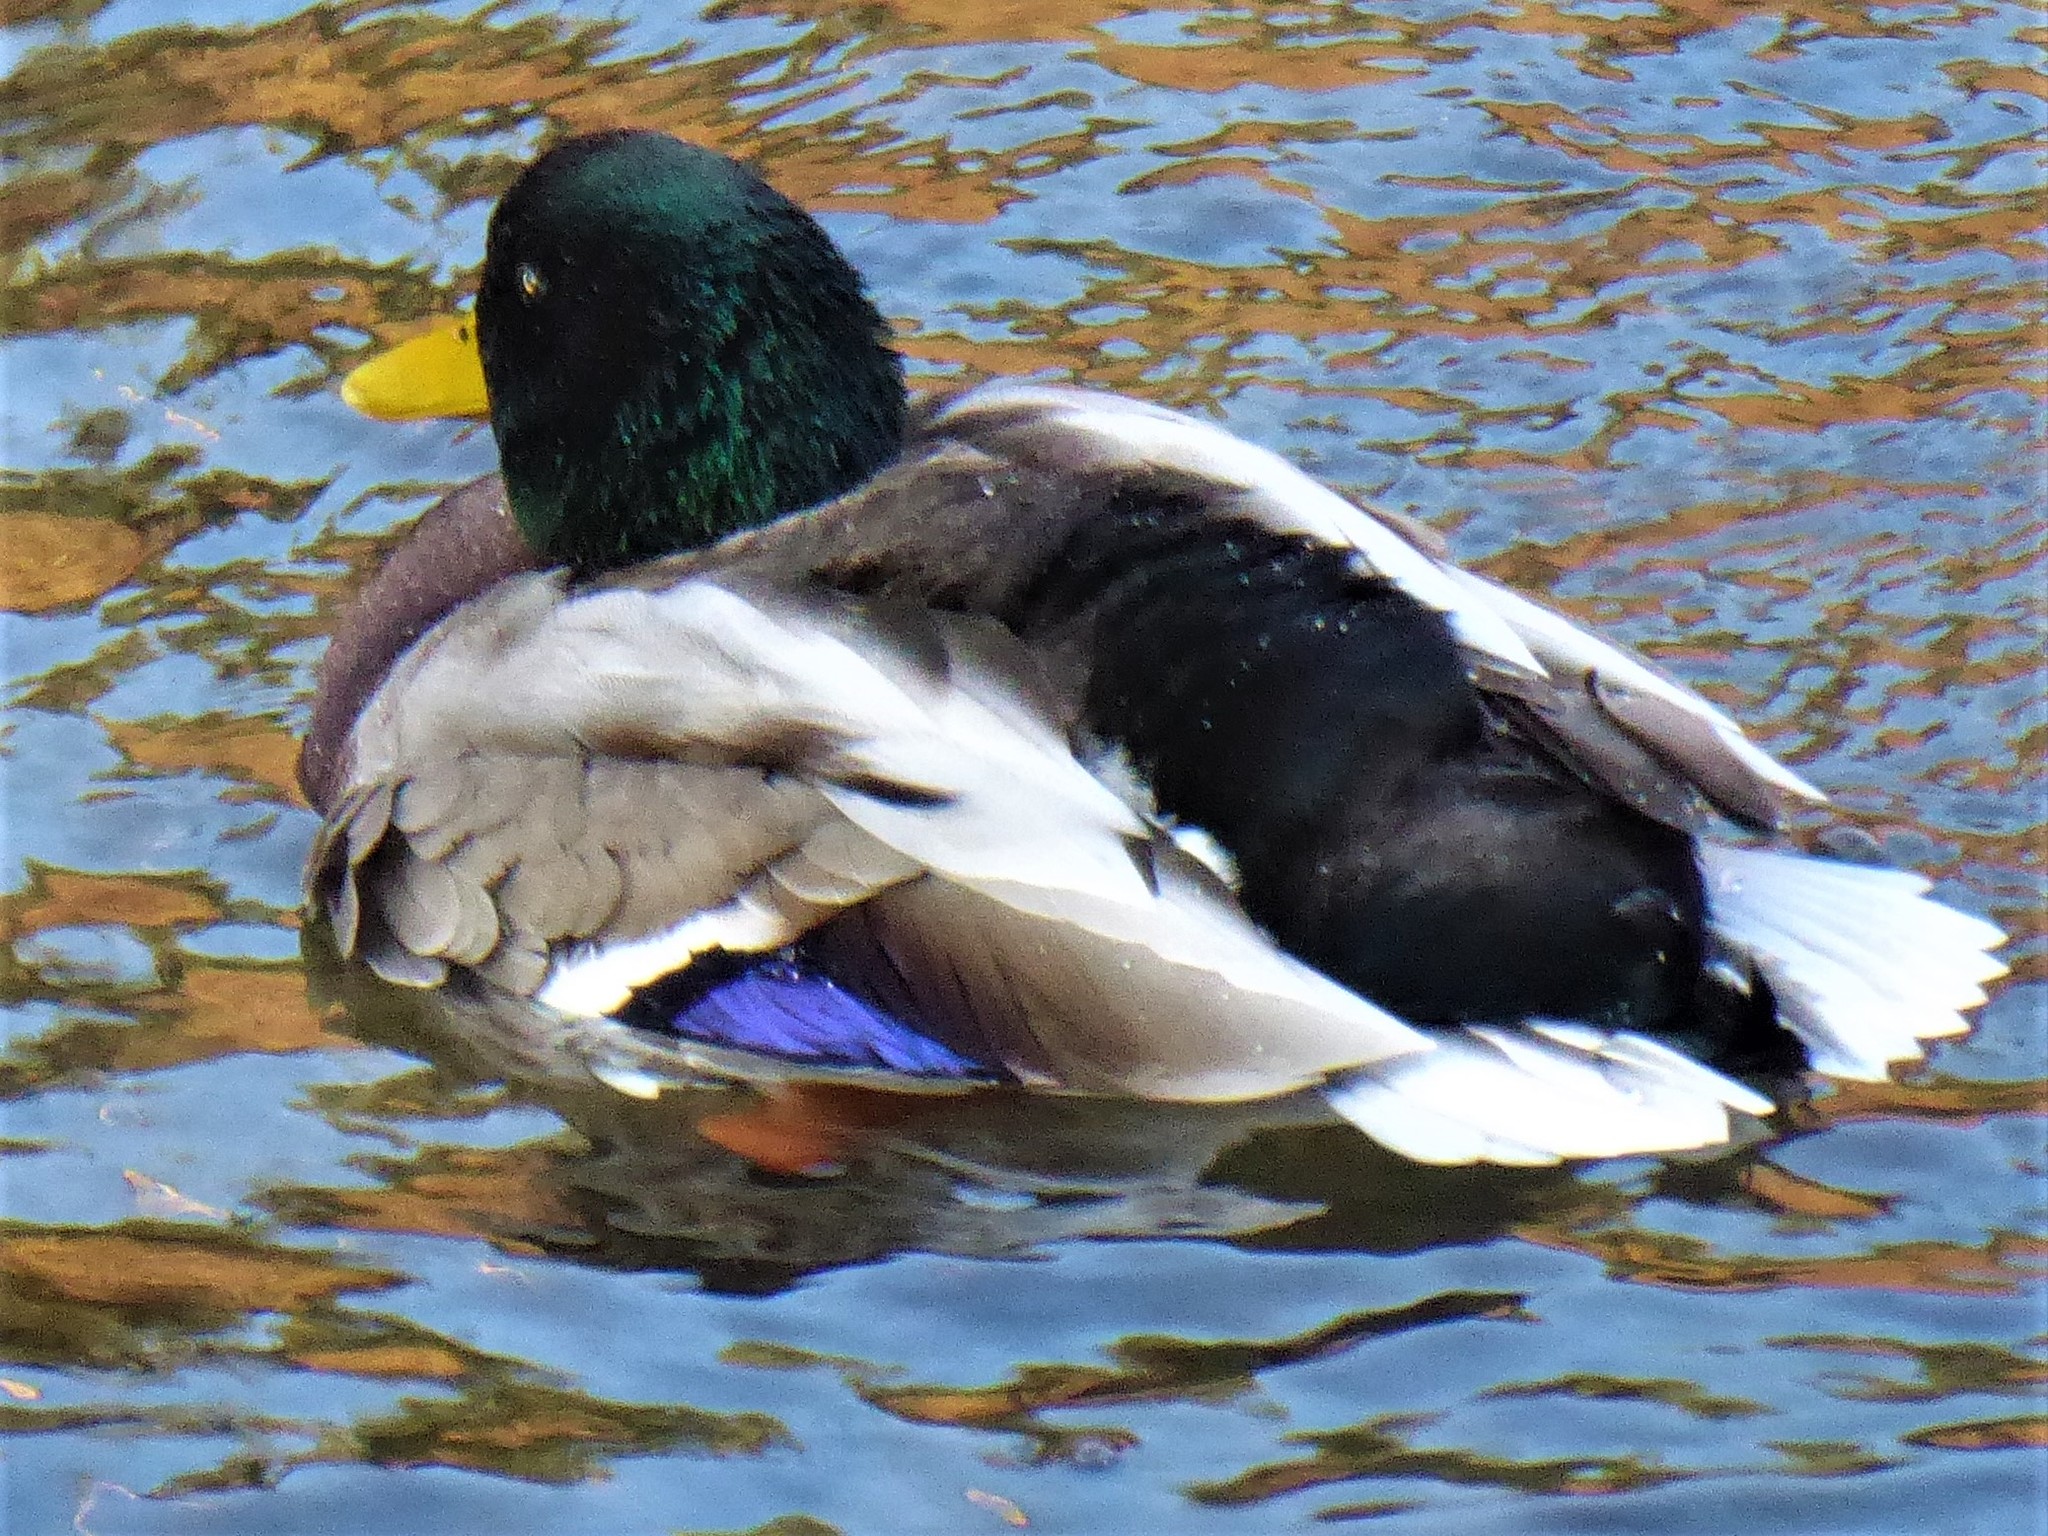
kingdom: Animalia
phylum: Chordata
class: Aves
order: Anseriformes
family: Anatidae
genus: Anas
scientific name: Anas platyrhynchos
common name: Mallard
